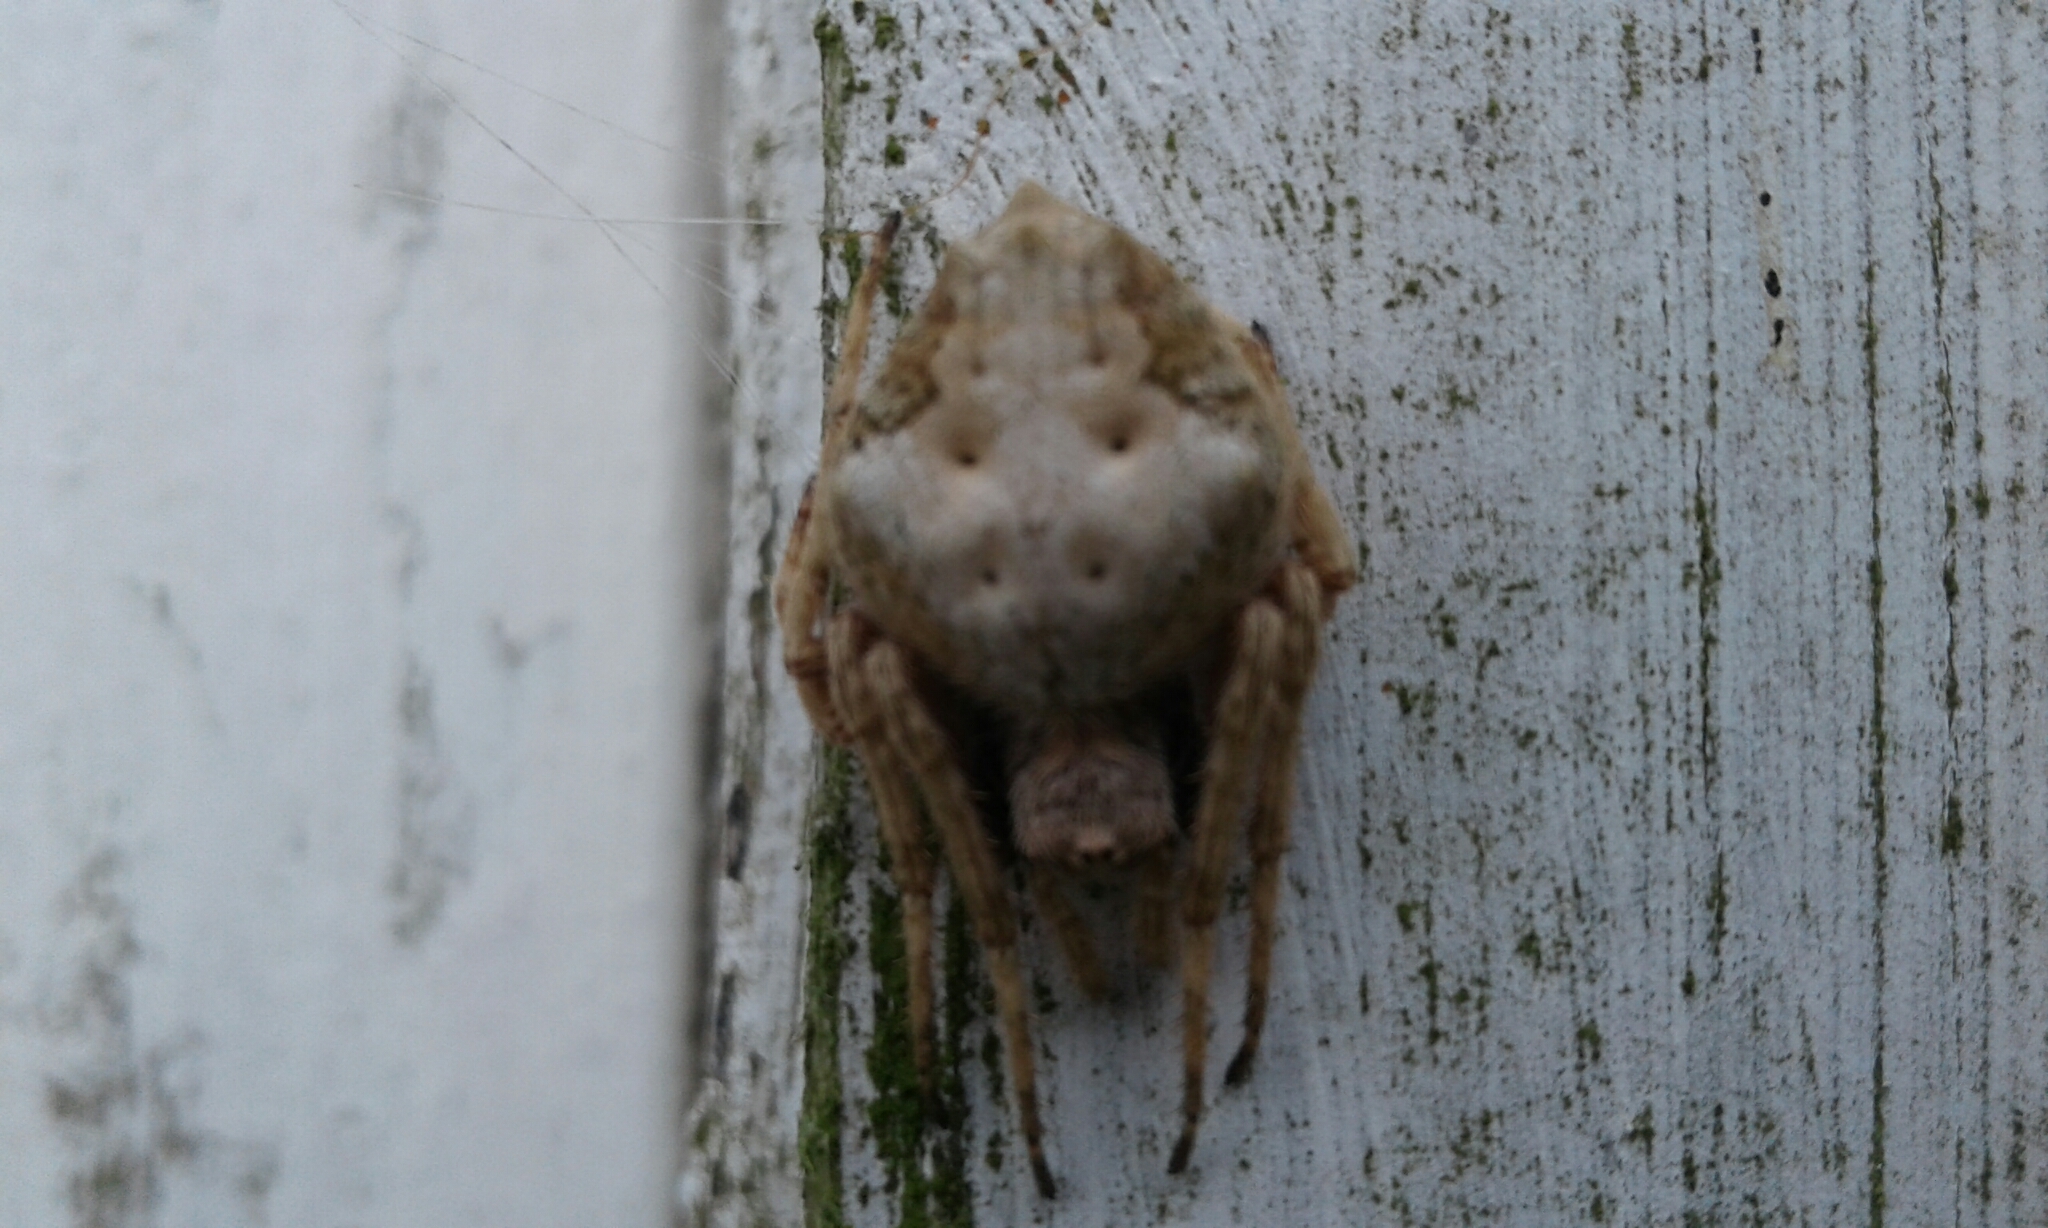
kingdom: Animalia
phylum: Arthropoda
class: Arachnida
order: Araneae
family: Araneidae
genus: Eriophora
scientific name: Eriophora pustulosa
